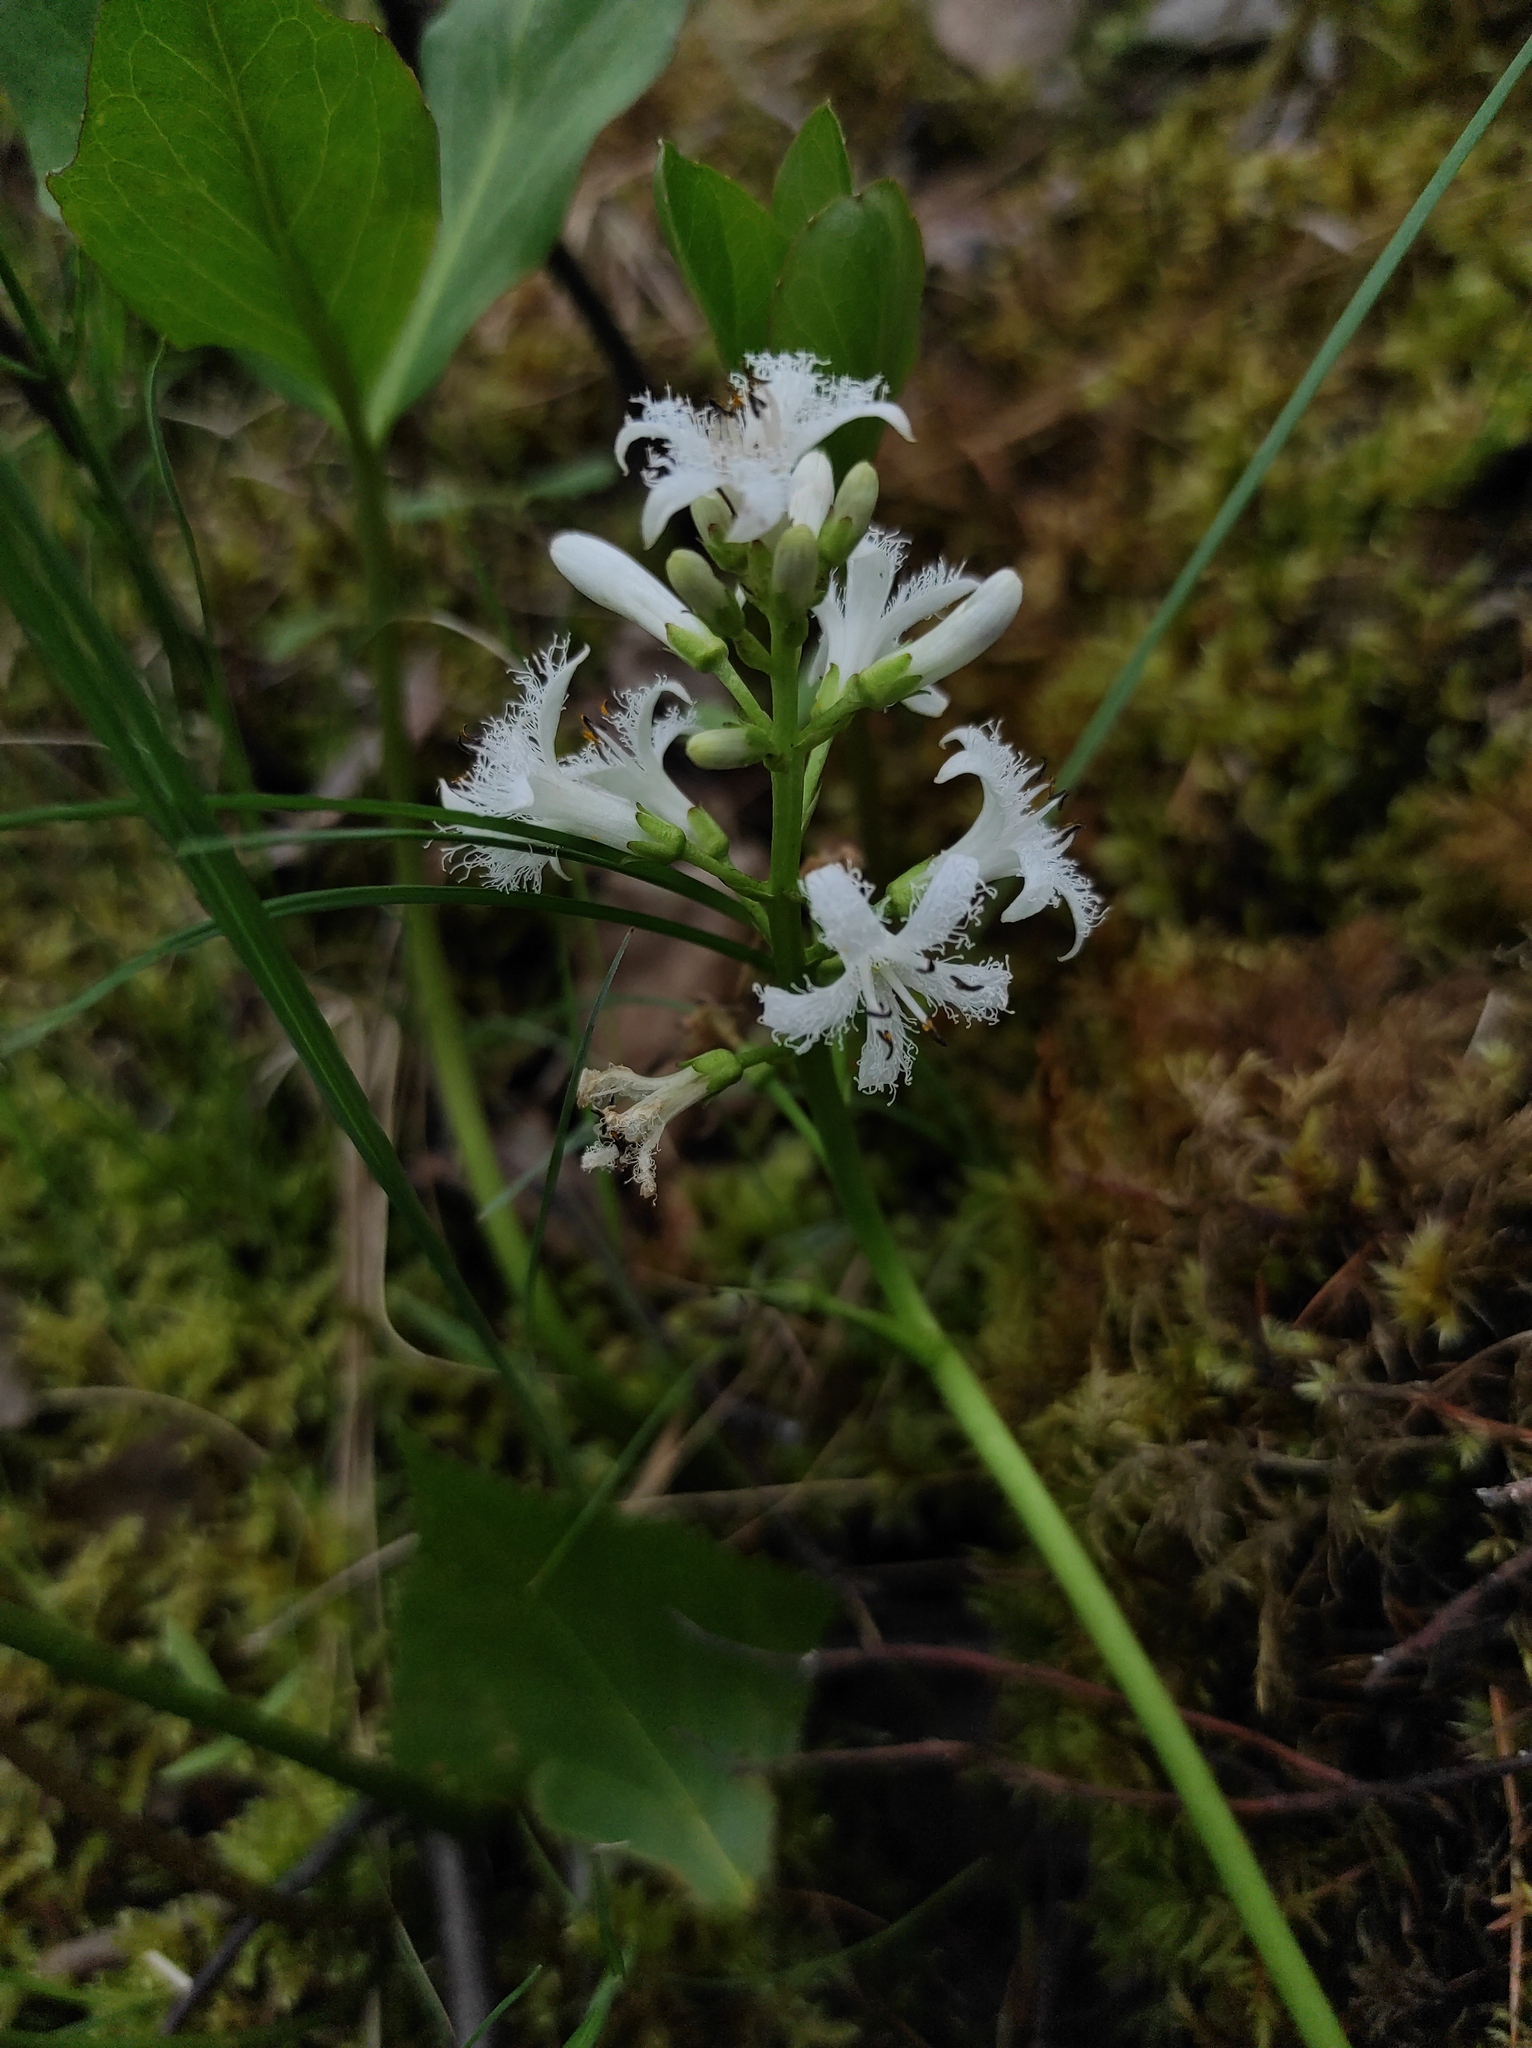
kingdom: Plantae
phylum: Tracheophyta
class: Magnoliopsida
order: Asterales
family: Menyanthaceae
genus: Menyanthes
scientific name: Menyanthes trifoliata
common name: Bogbean
